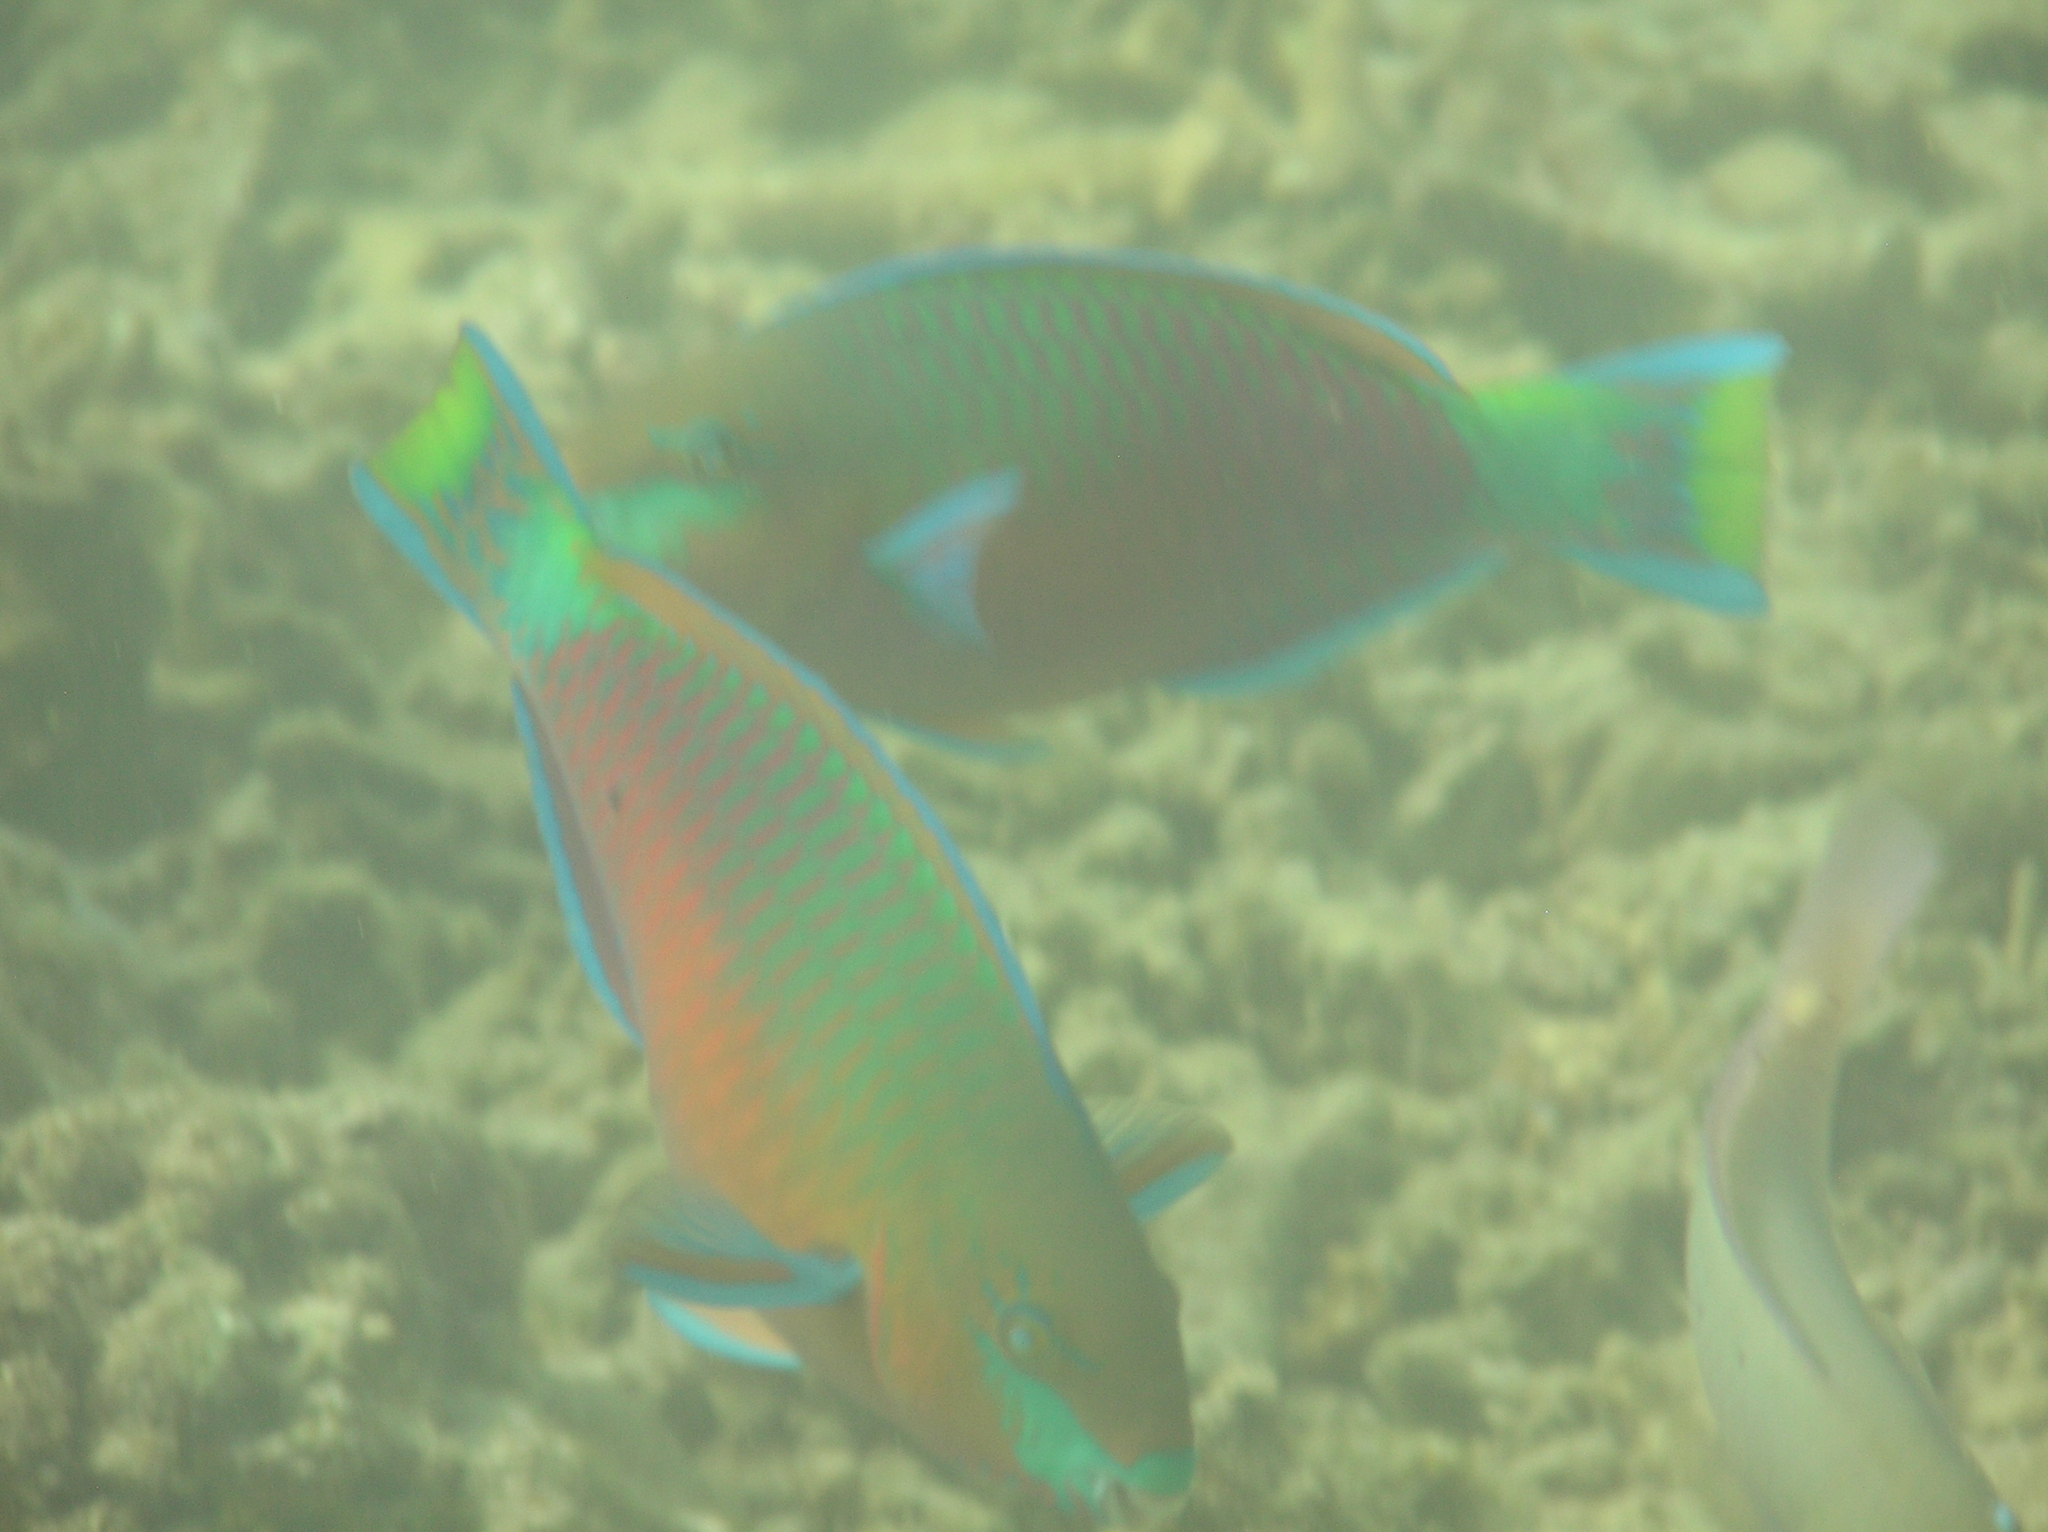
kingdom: Animalia
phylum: Chordata
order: Perciformes
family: Scaridae
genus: Scarus
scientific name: Scarus quoyi
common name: Quoy's parrotfish
